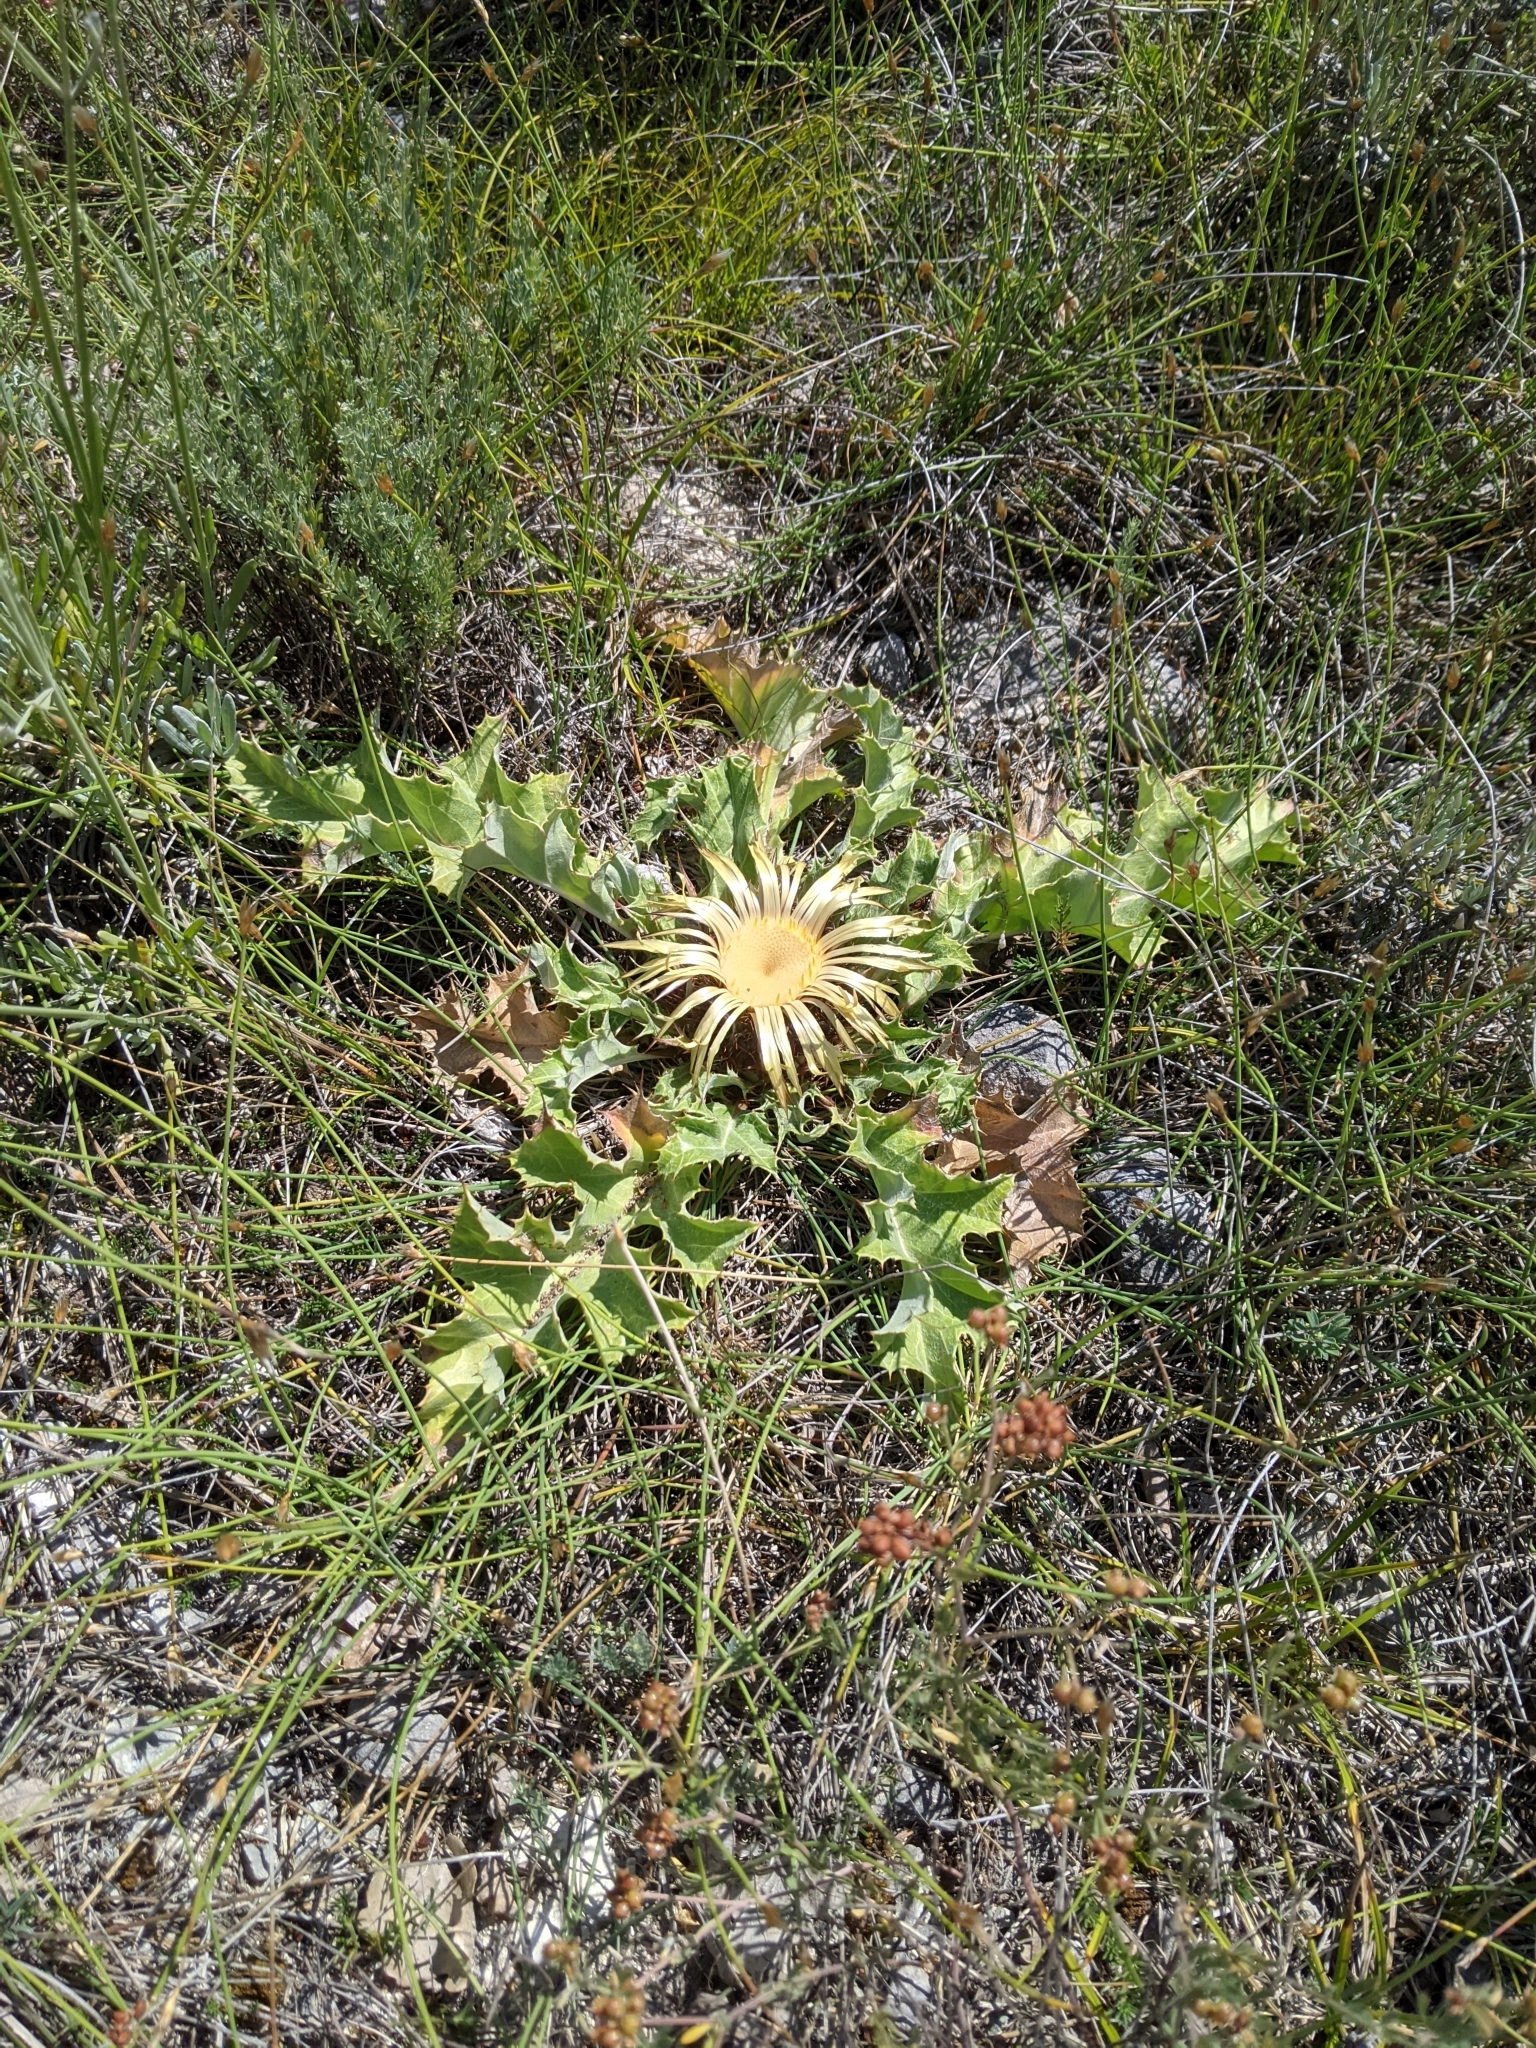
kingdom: Plantae
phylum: Tracheophyta
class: Magnoliopsida
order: Asterales
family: Asteraceae
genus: Carlina
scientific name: Carlina acanthifolia
